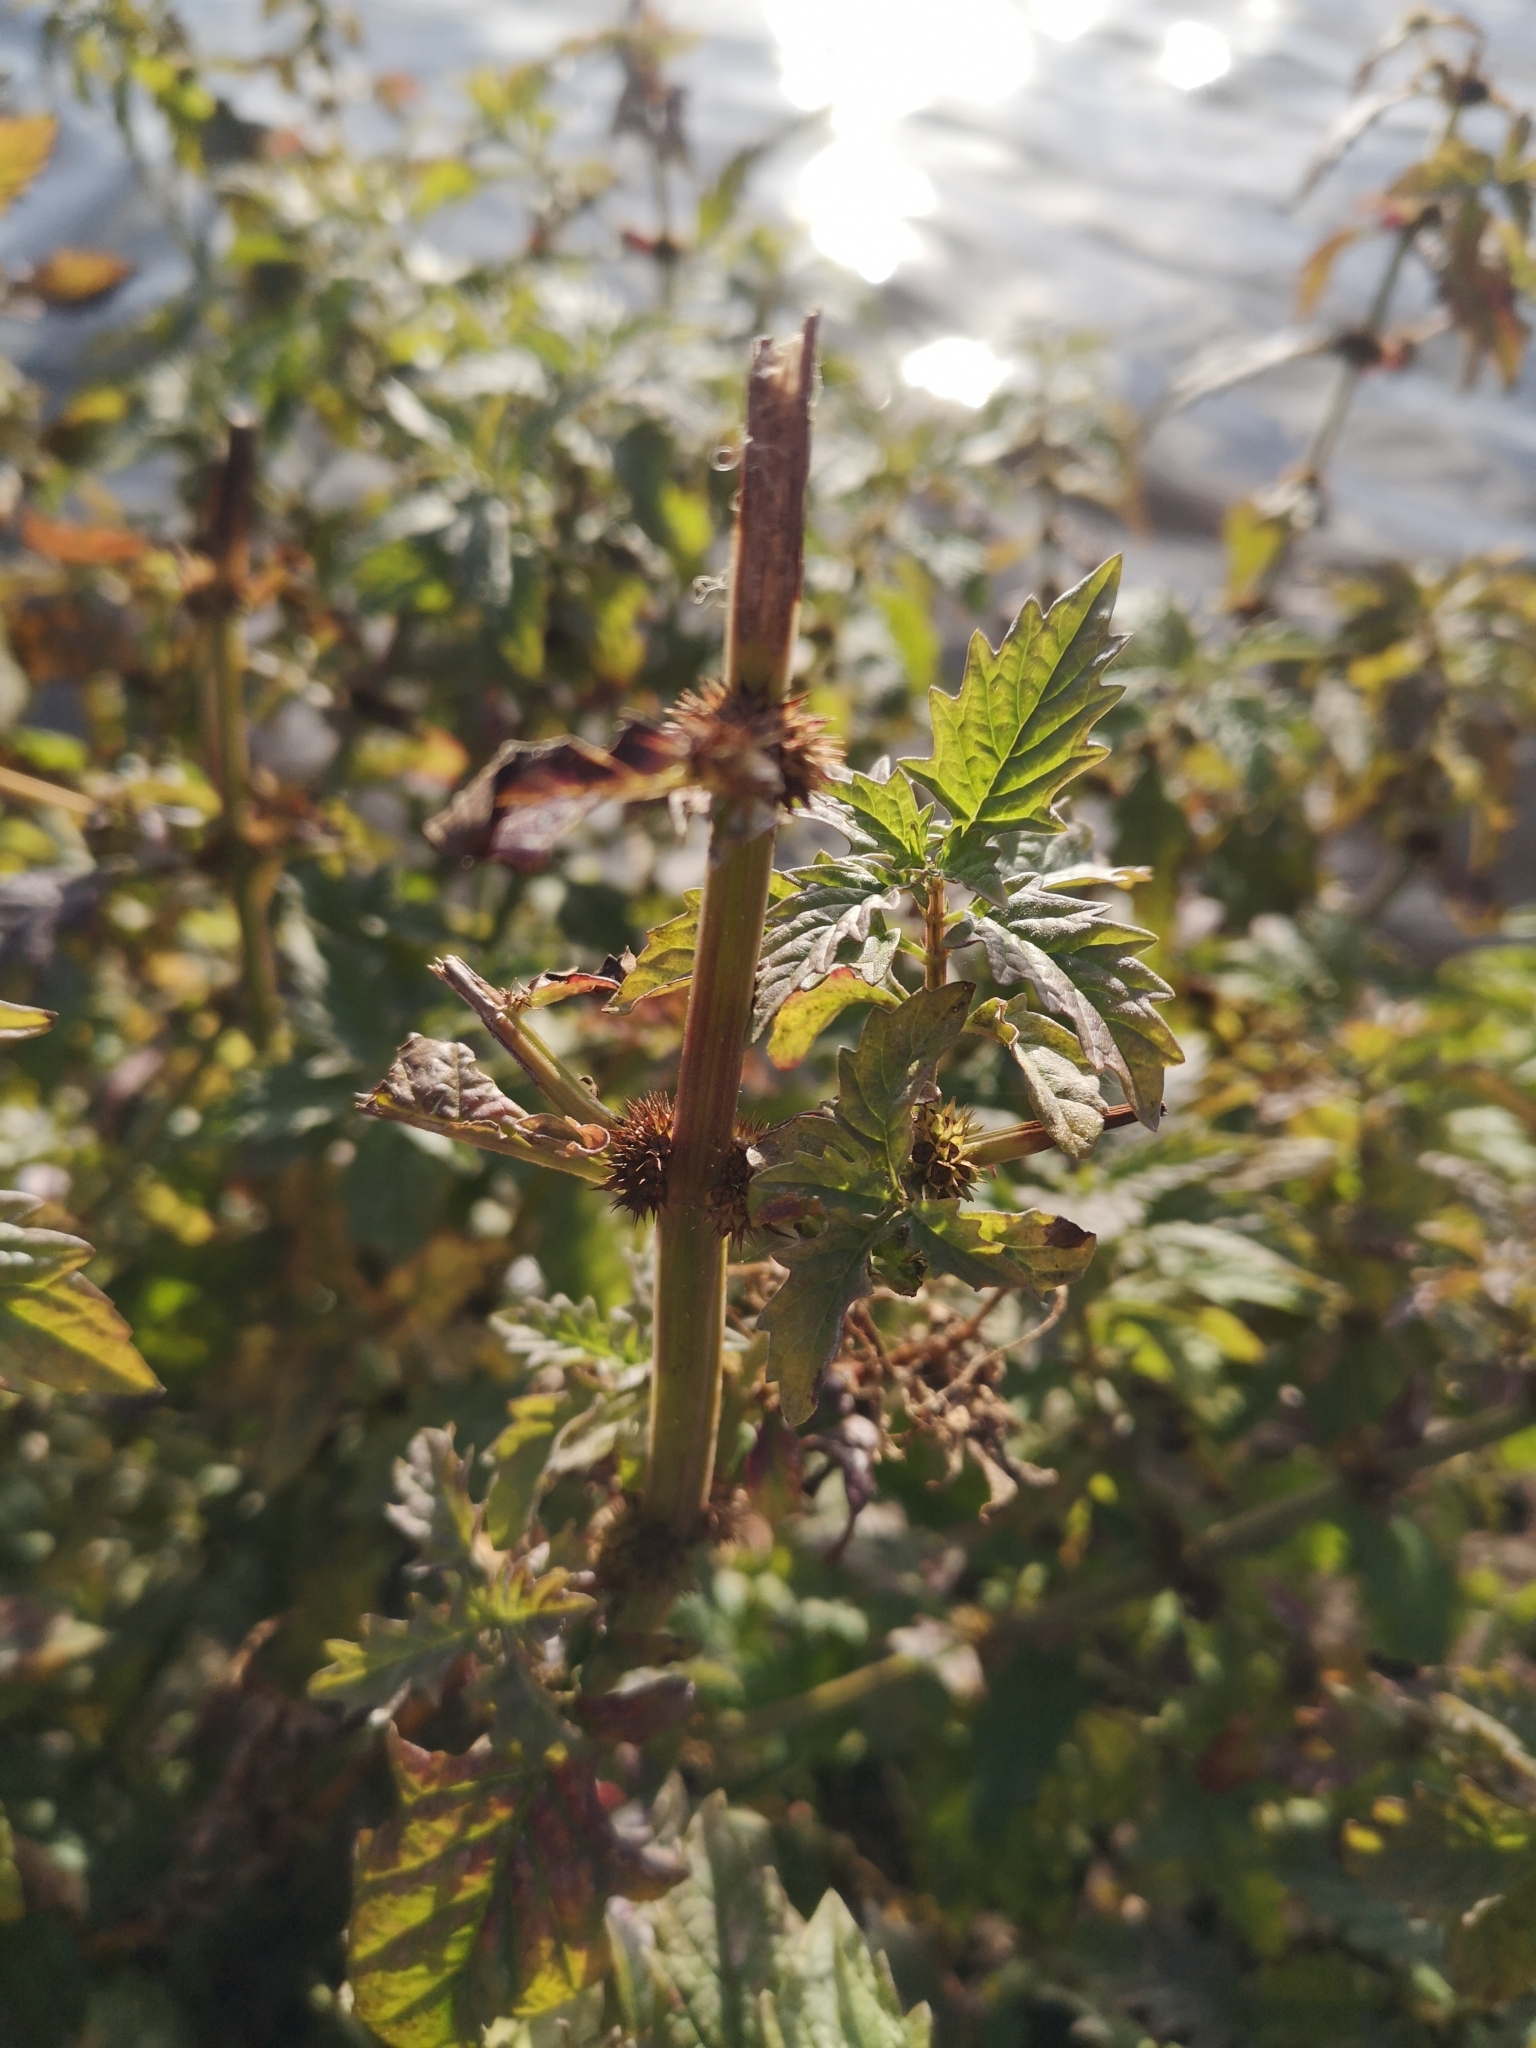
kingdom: Plantae
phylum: Tracheophyta
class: Magnoliopsida
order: Lamiales
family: Lamiaceae
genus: Lycopus
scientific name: Lycopus europaeus
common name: European bugleweed
